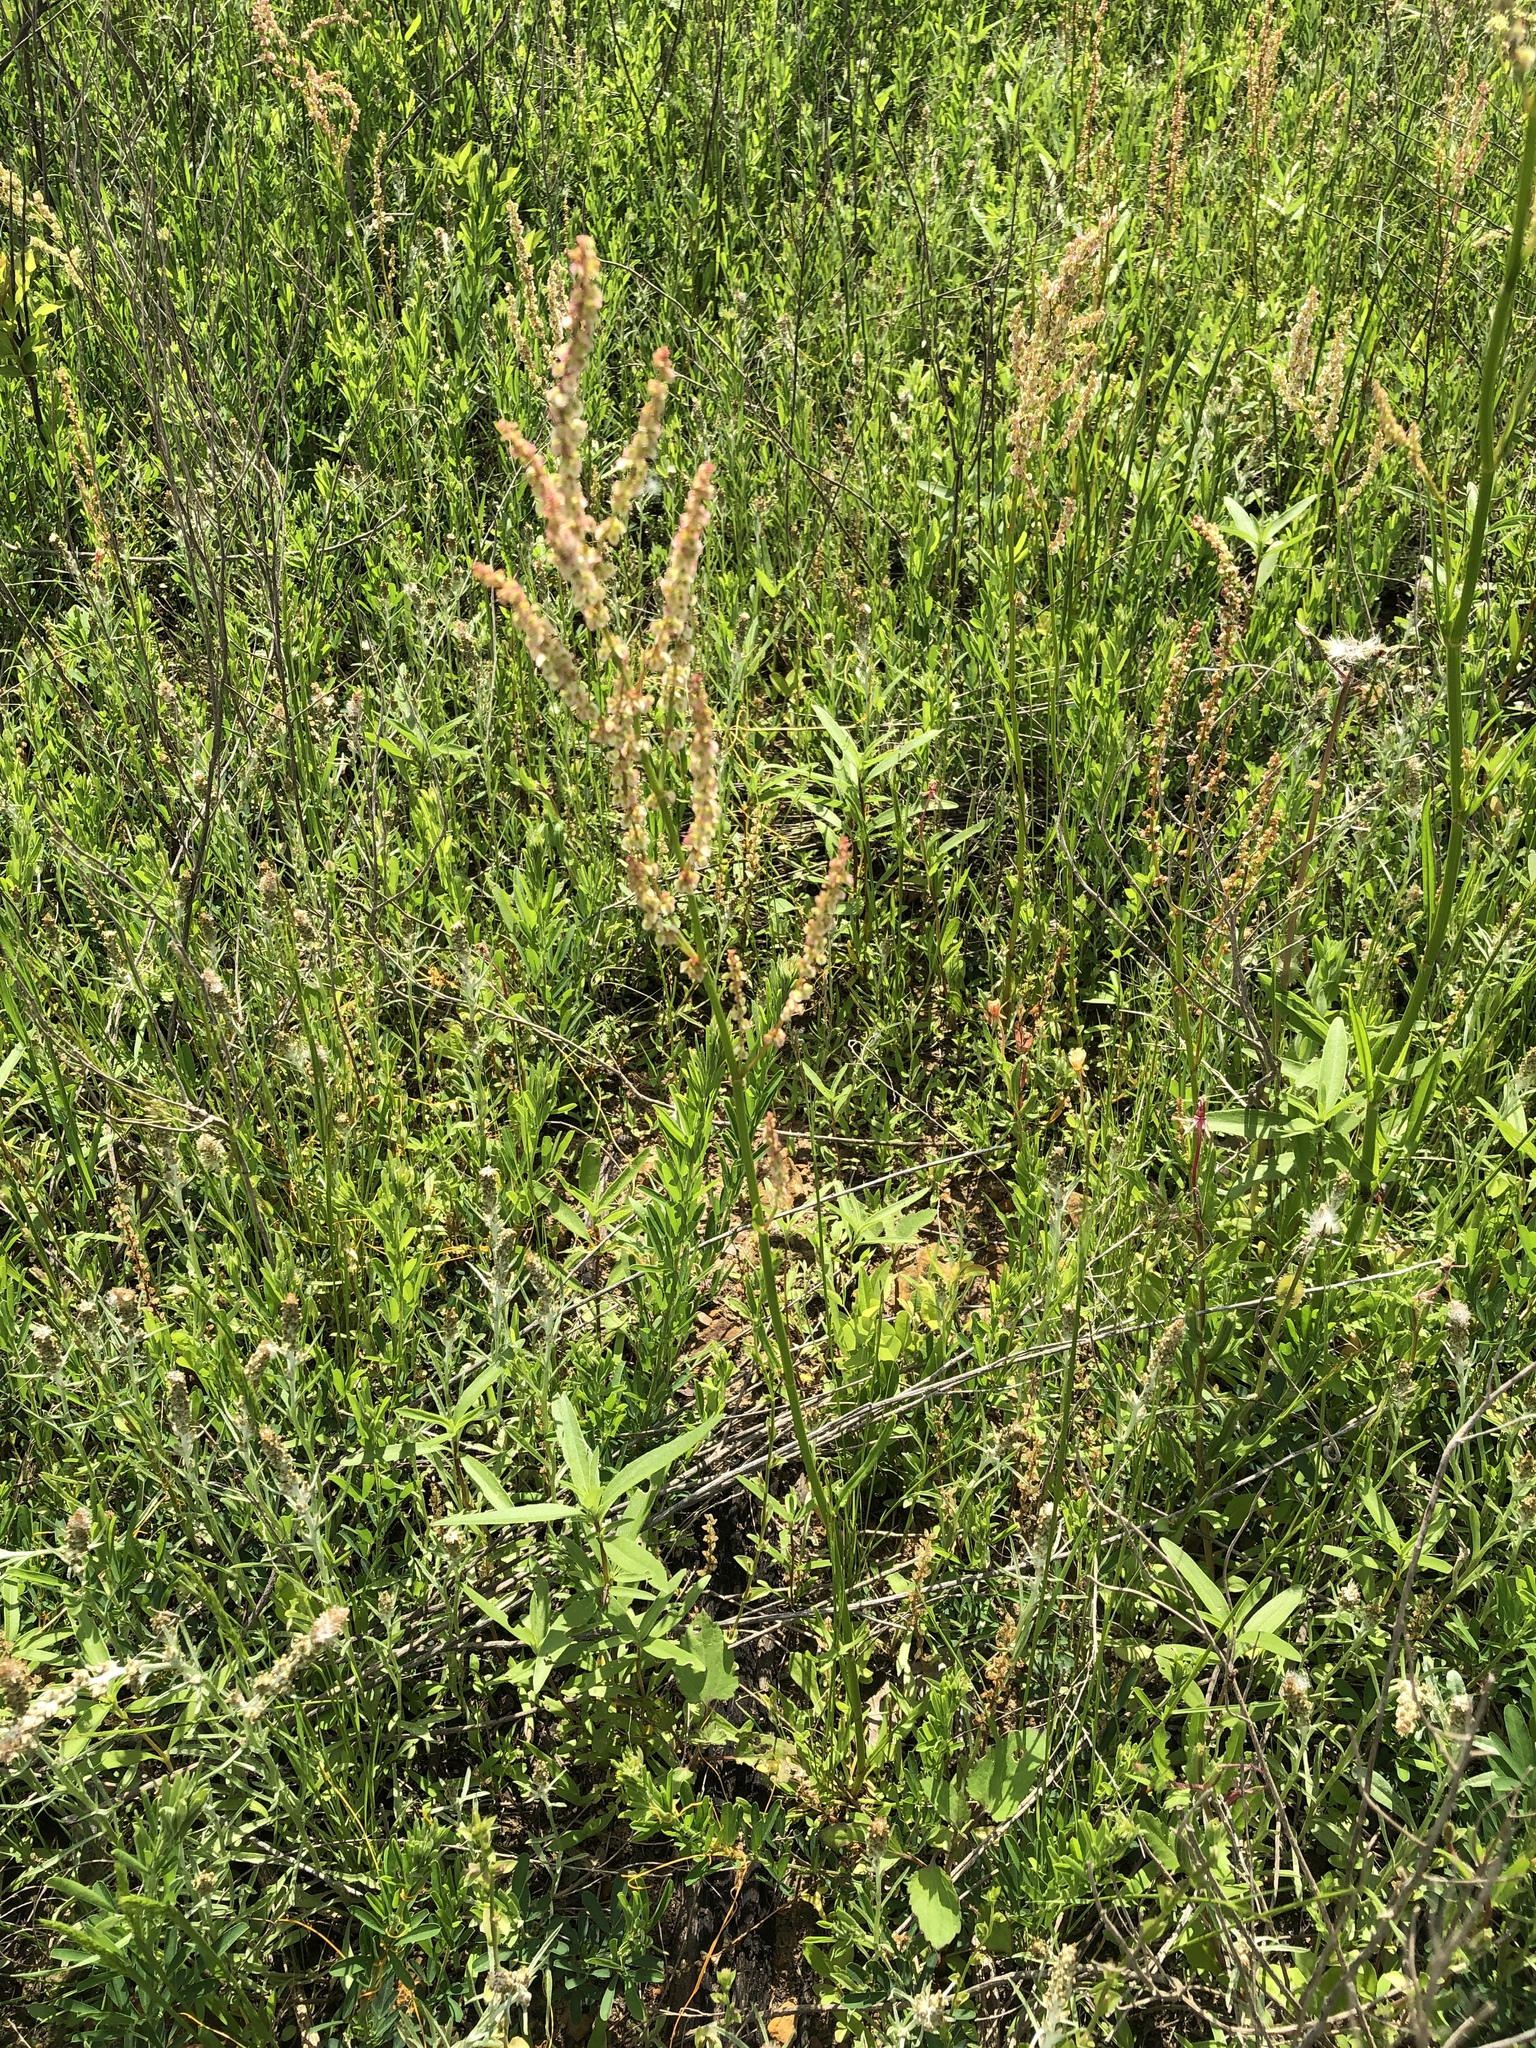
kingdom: Plantae
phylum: Tracheophyta
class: Magnoliopsida
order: Caryophyllales
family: Polygonaceae
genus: Rumex
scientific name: Rumex hastatulus
